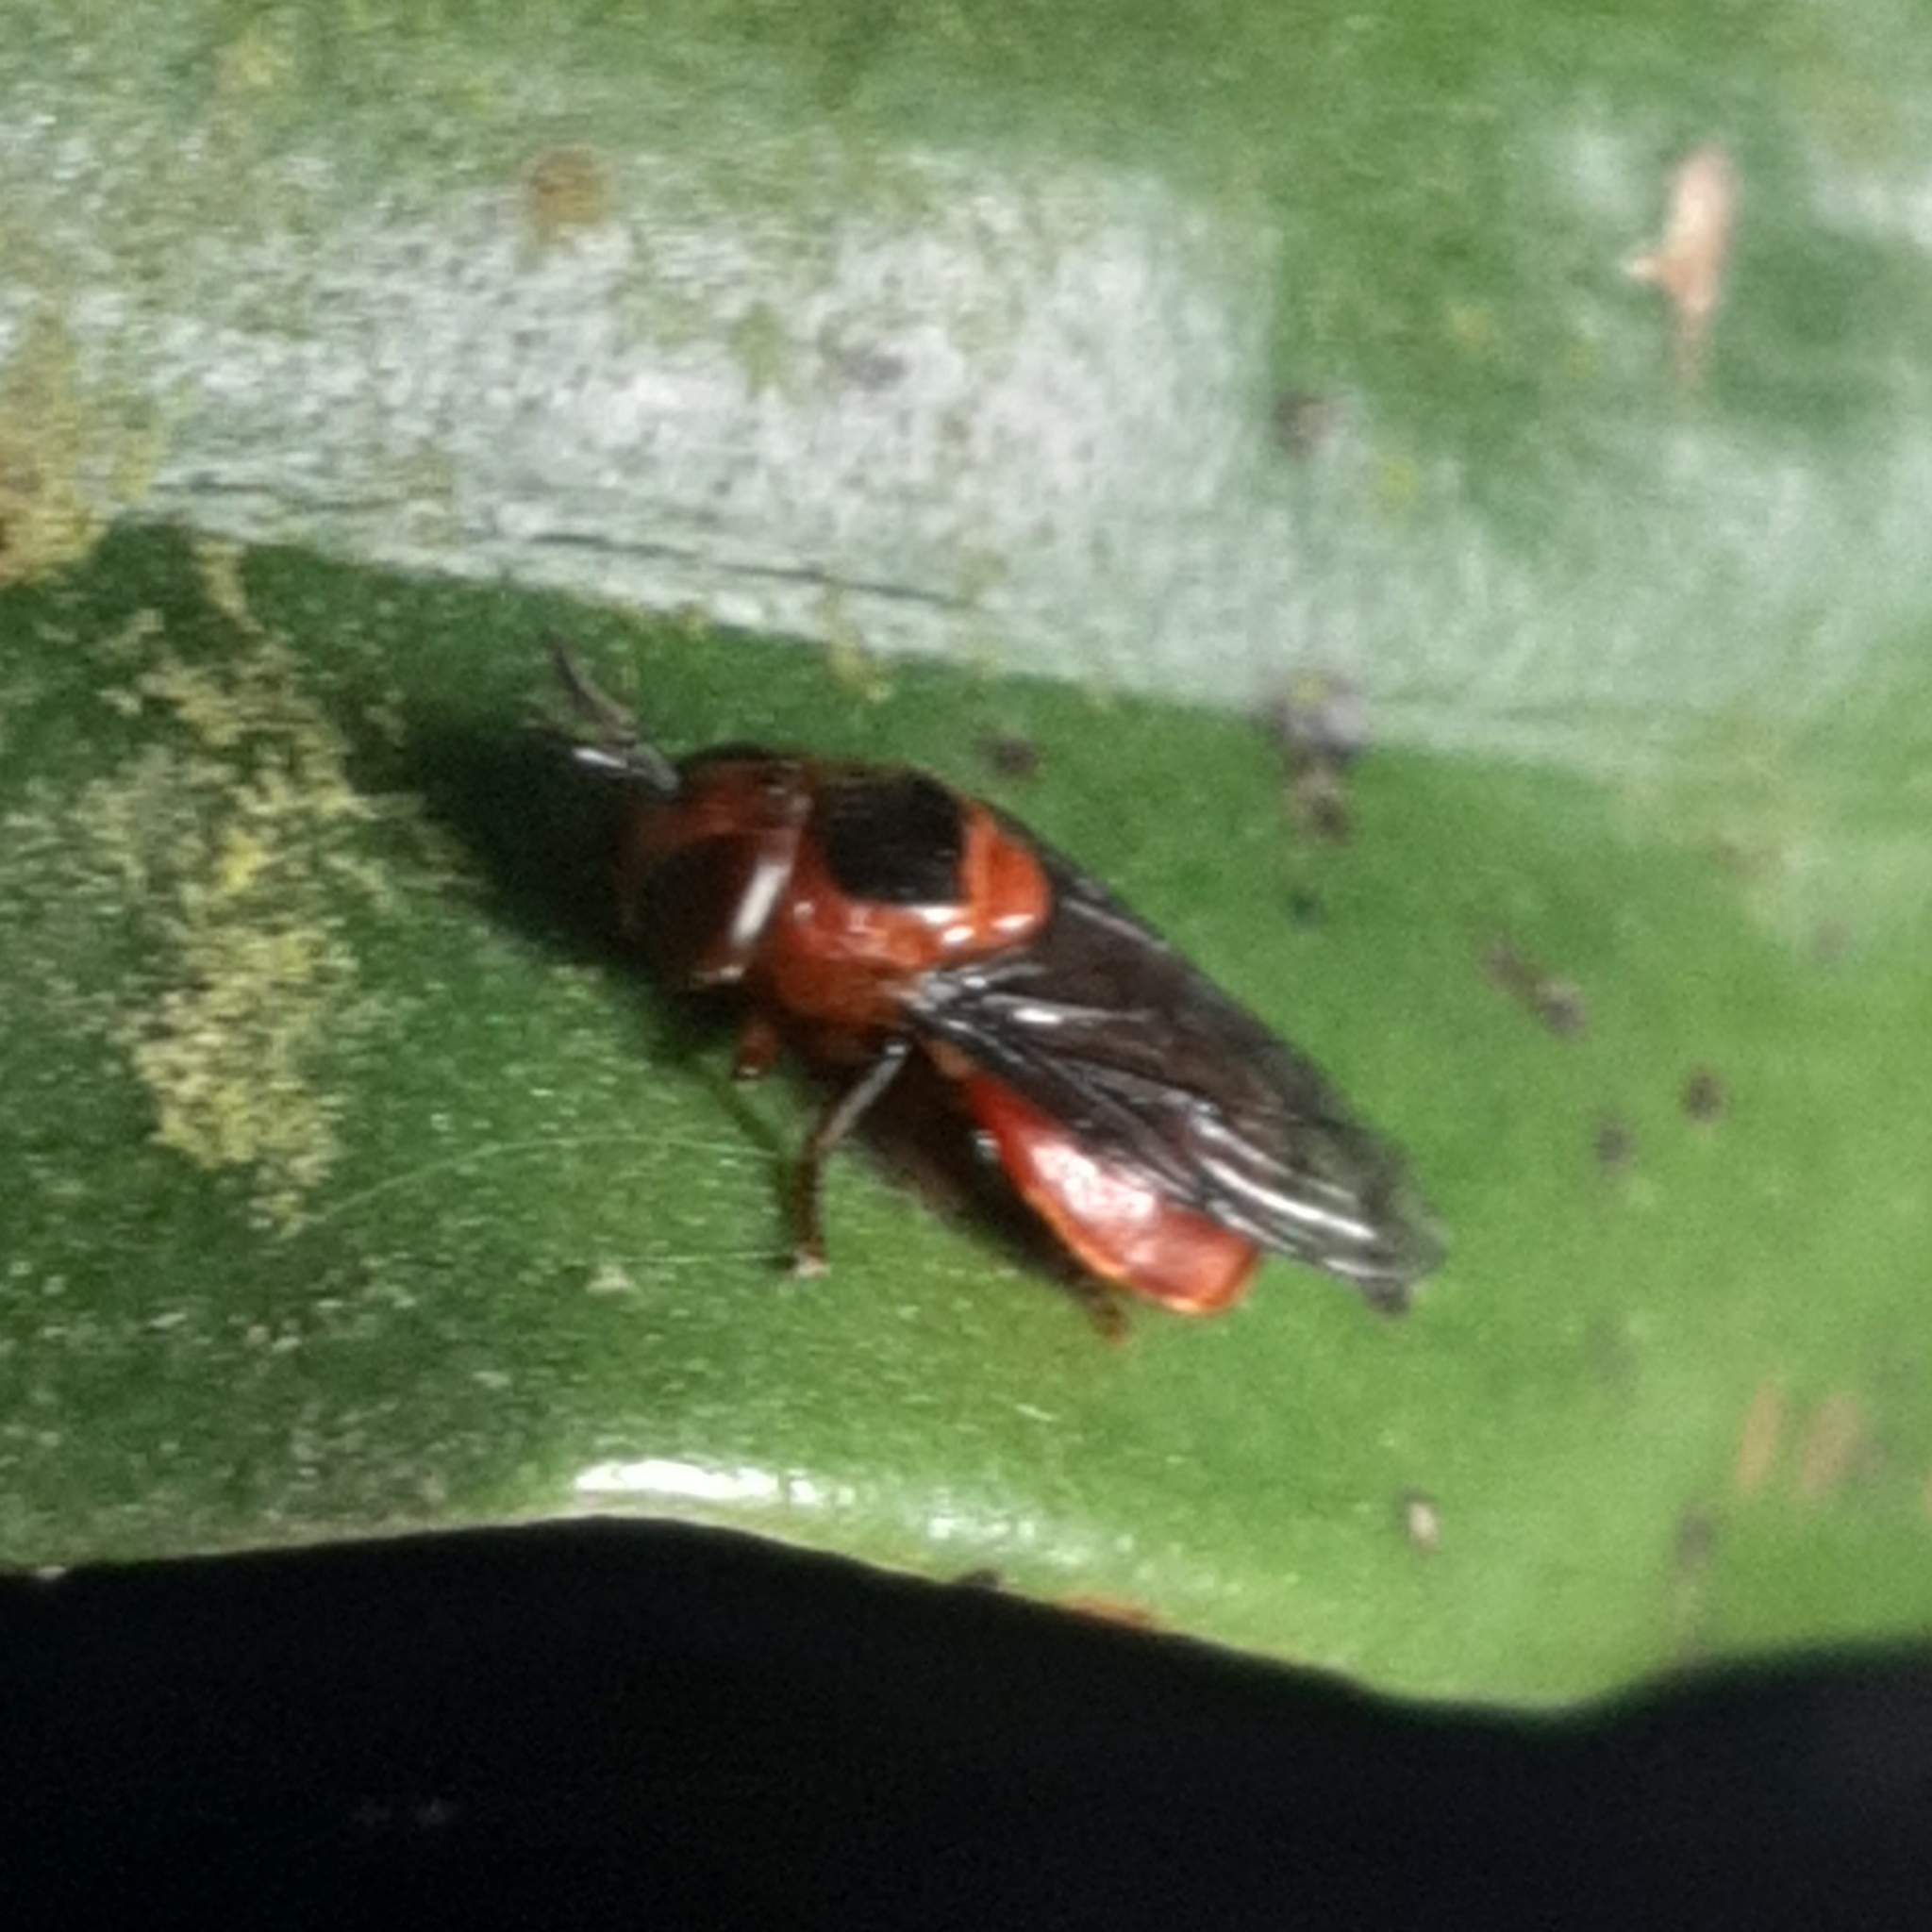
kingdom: Animalia
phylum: Arthropoda
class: Insecta
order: Diptera
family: Syrphidae
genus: Menidon
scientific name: Menidon falcatus
